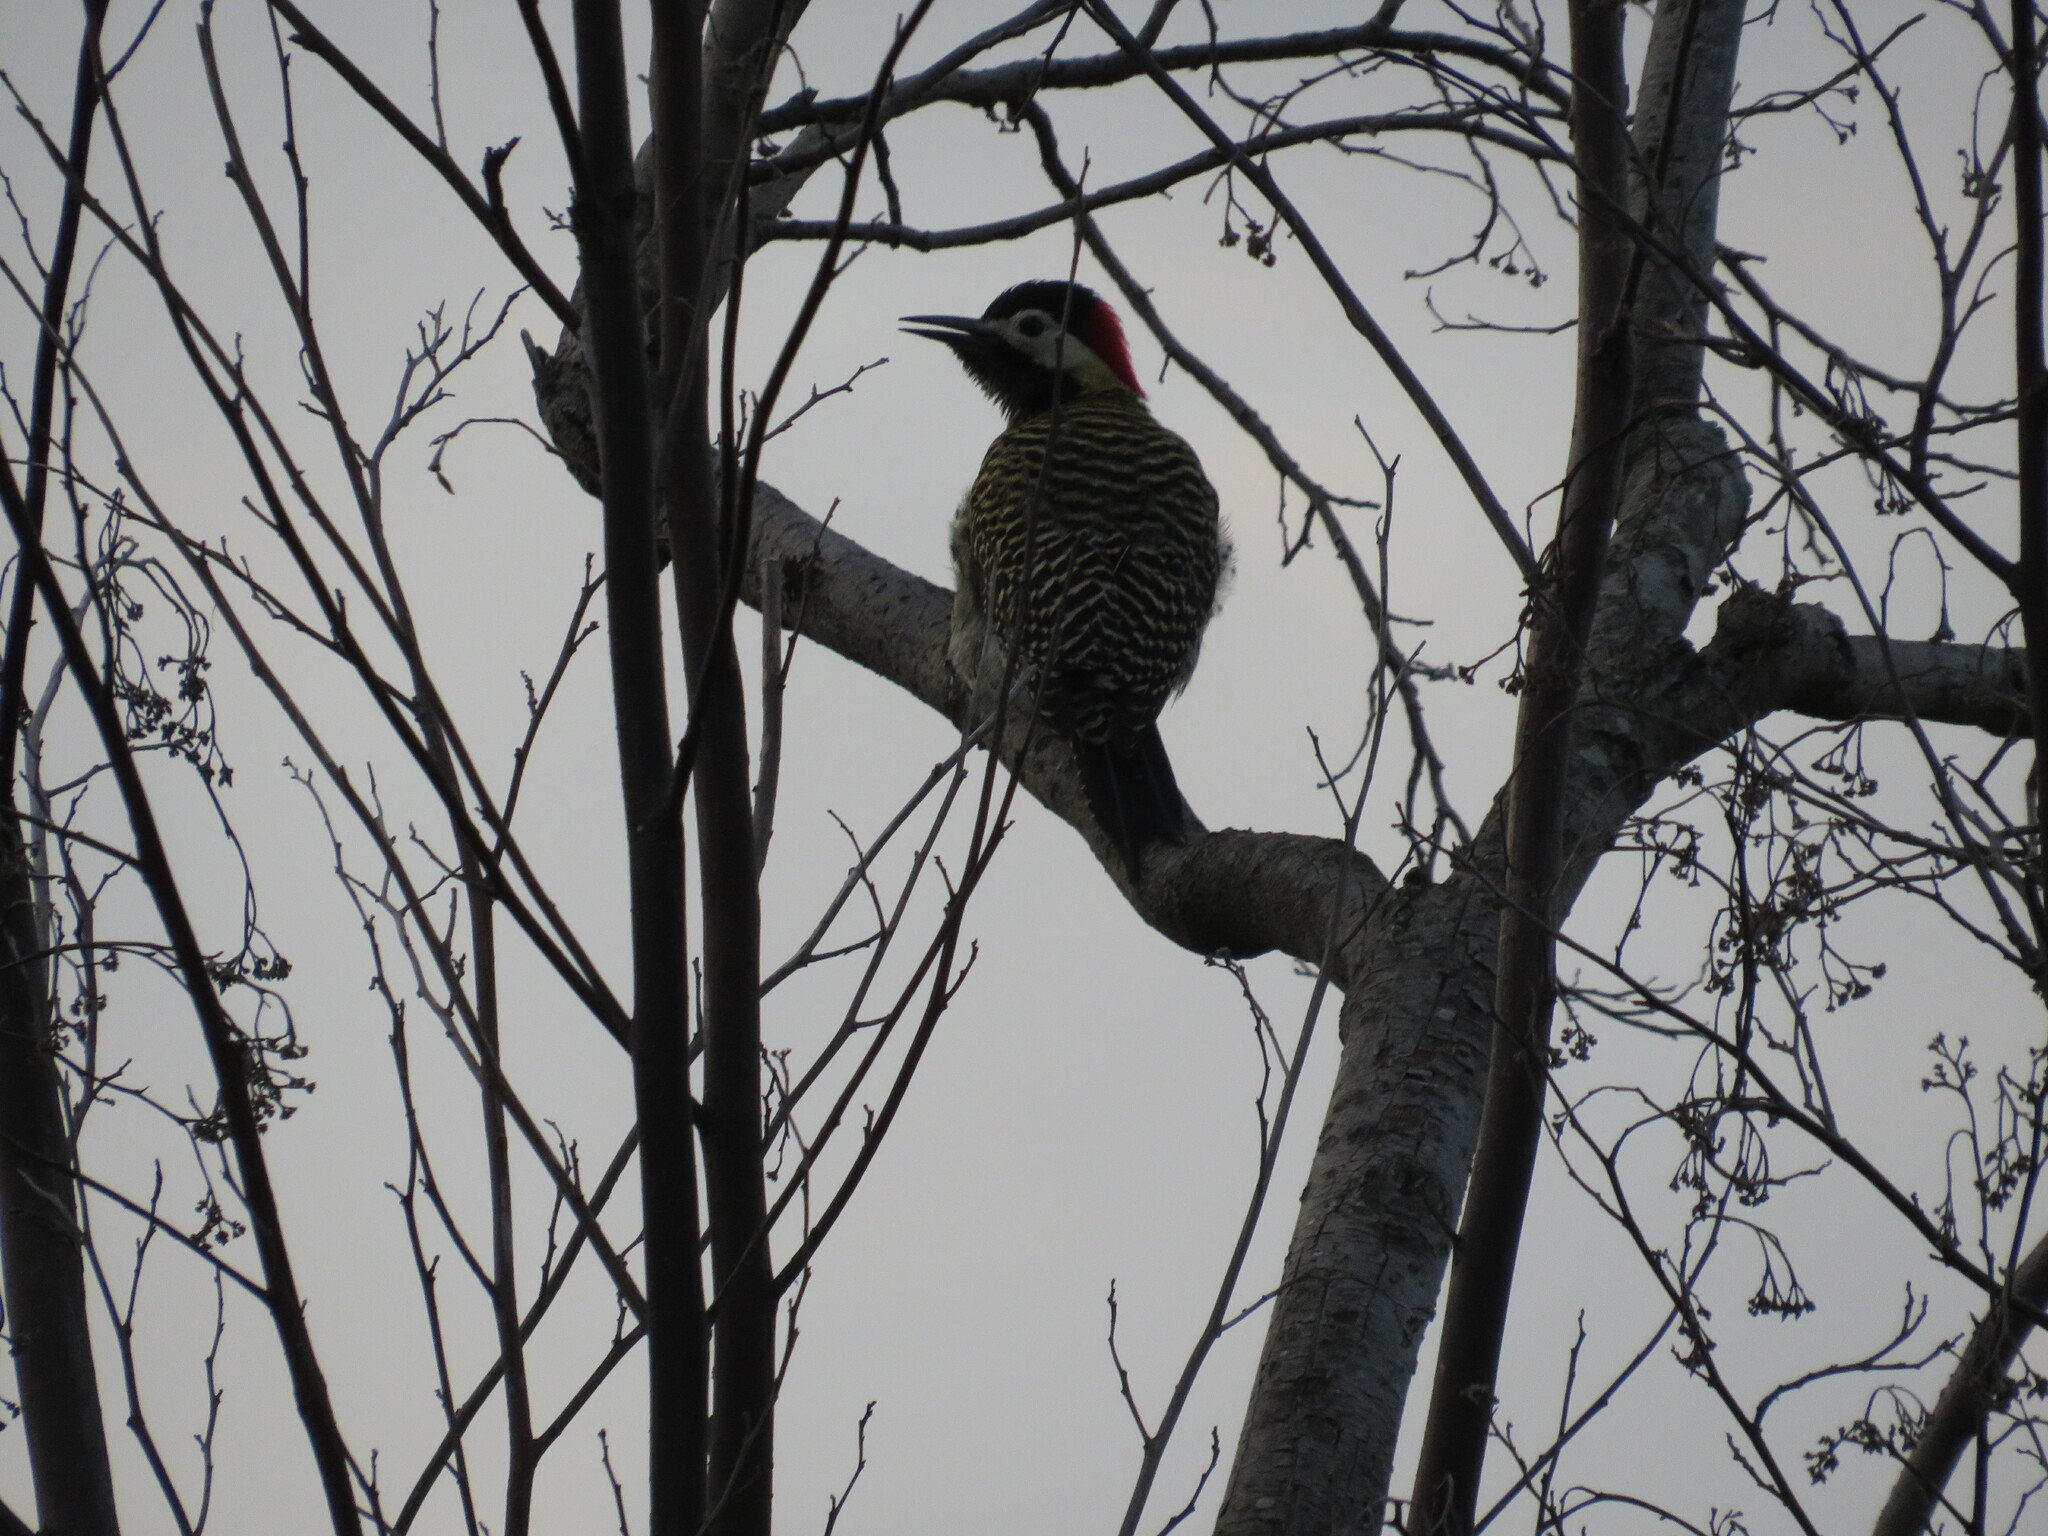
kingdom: Animalia
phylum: Chordata
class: Aves
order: Piciformes
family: Picidae
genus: Colaptes
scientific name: Colaptes melanochloros
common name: Green-barred woodpecker
